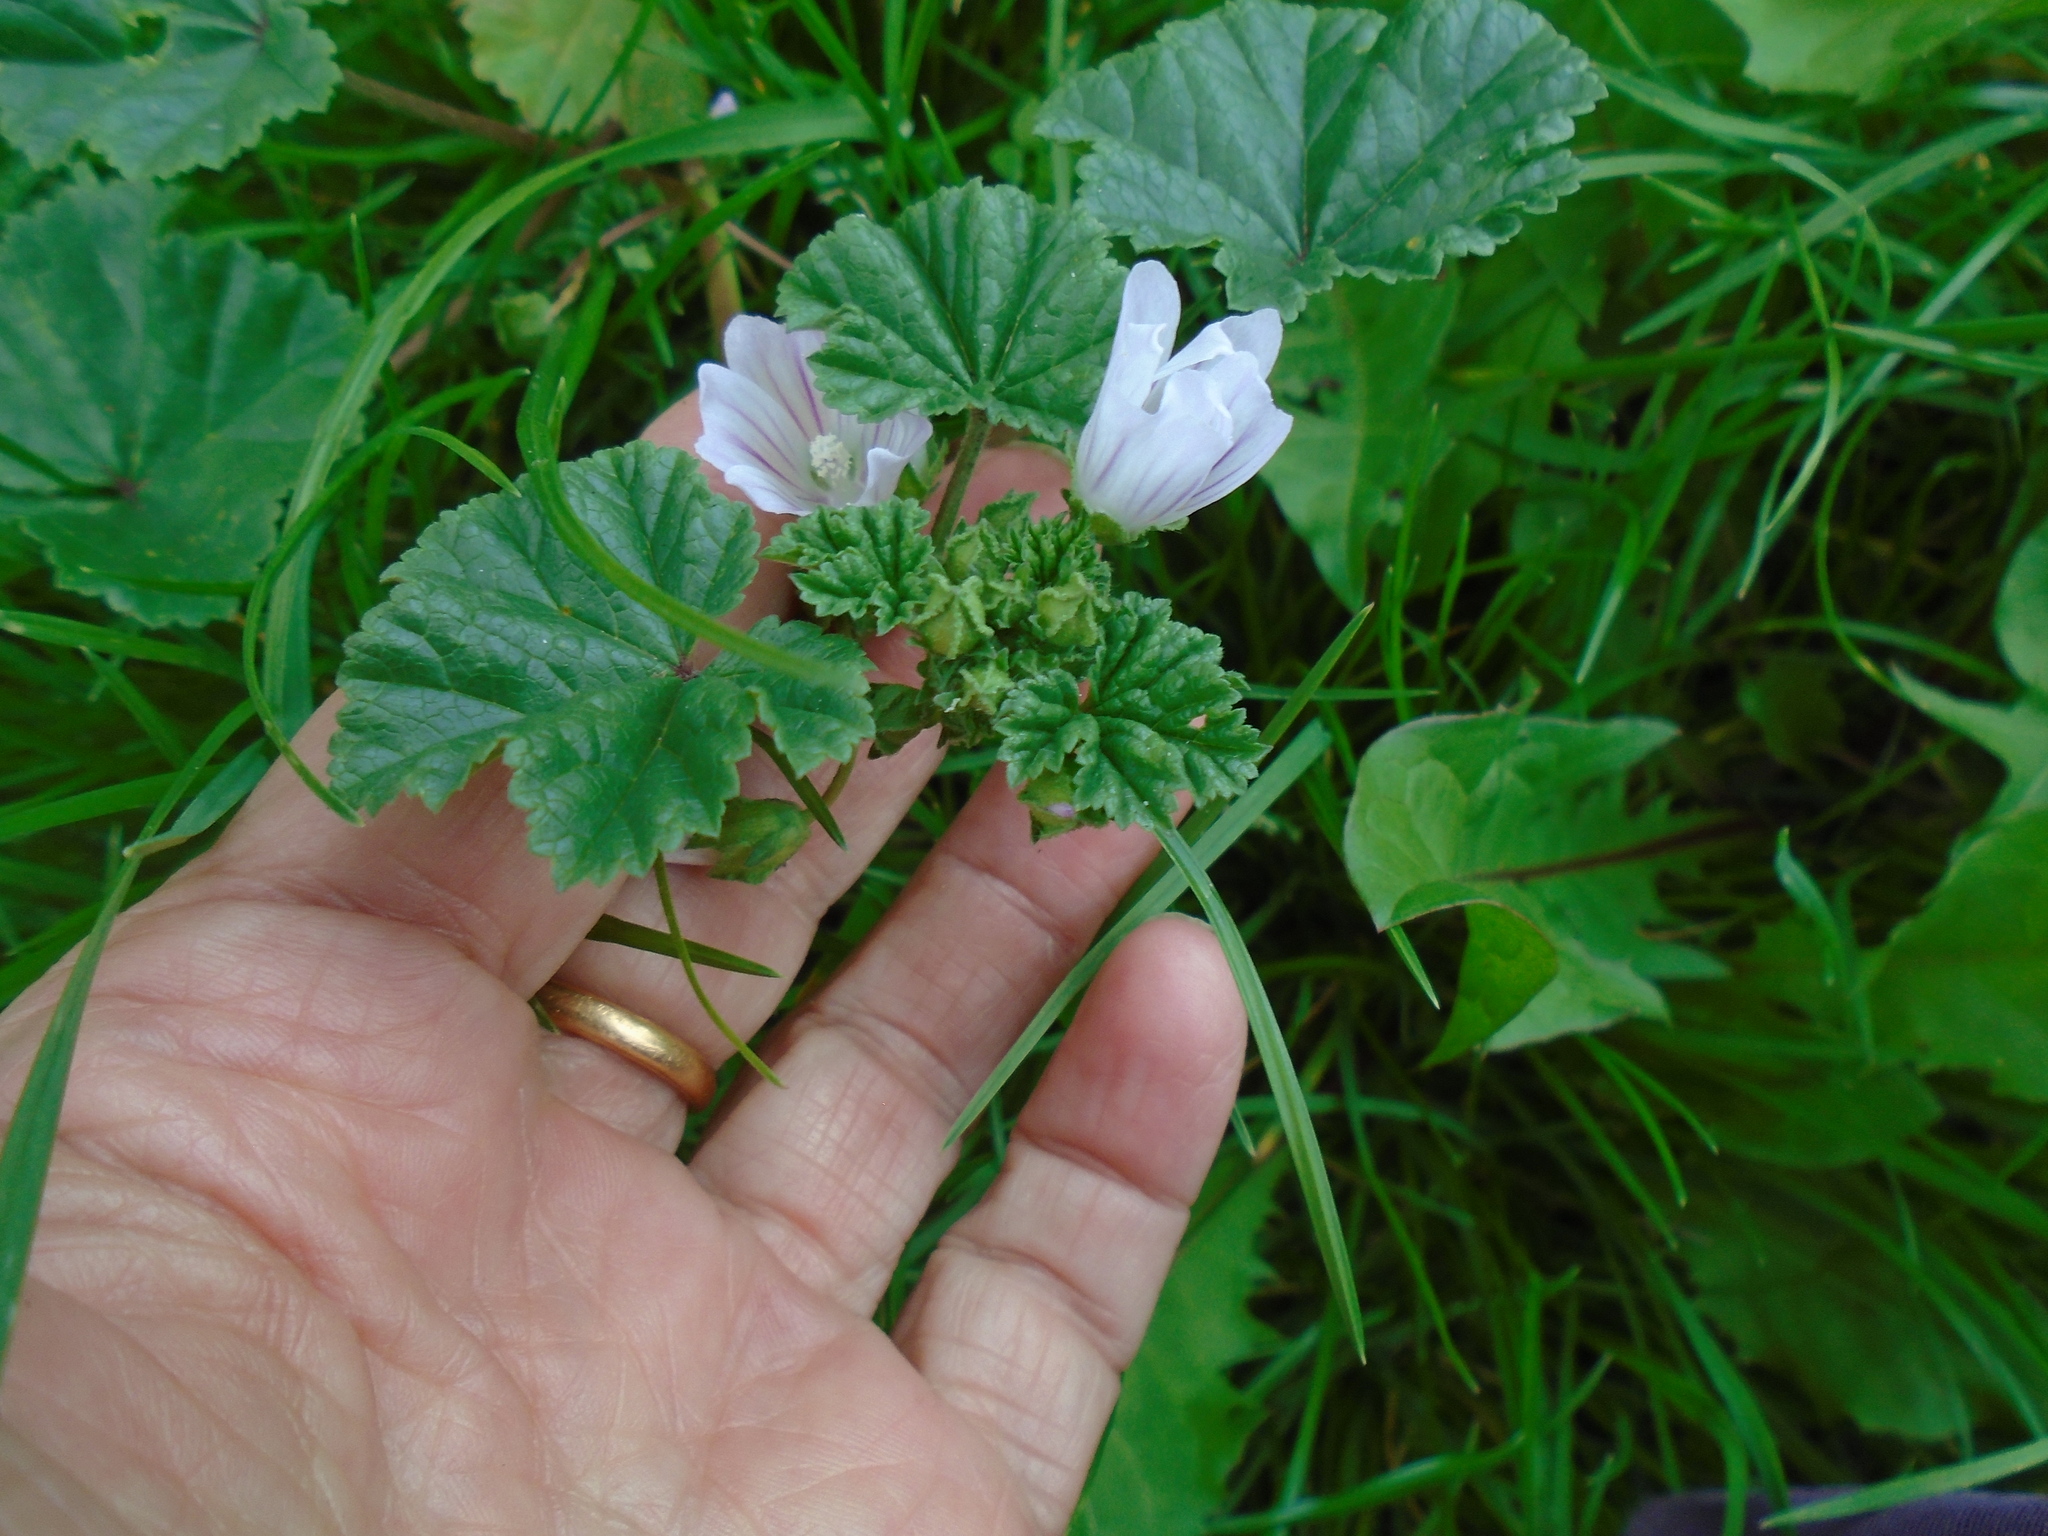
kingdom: Plantae
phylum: Tracheophyta
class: Magnoliopsida
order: Malvales
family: Malvaceae
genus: Malva
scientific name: Malva neglecta
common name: Common mallow
